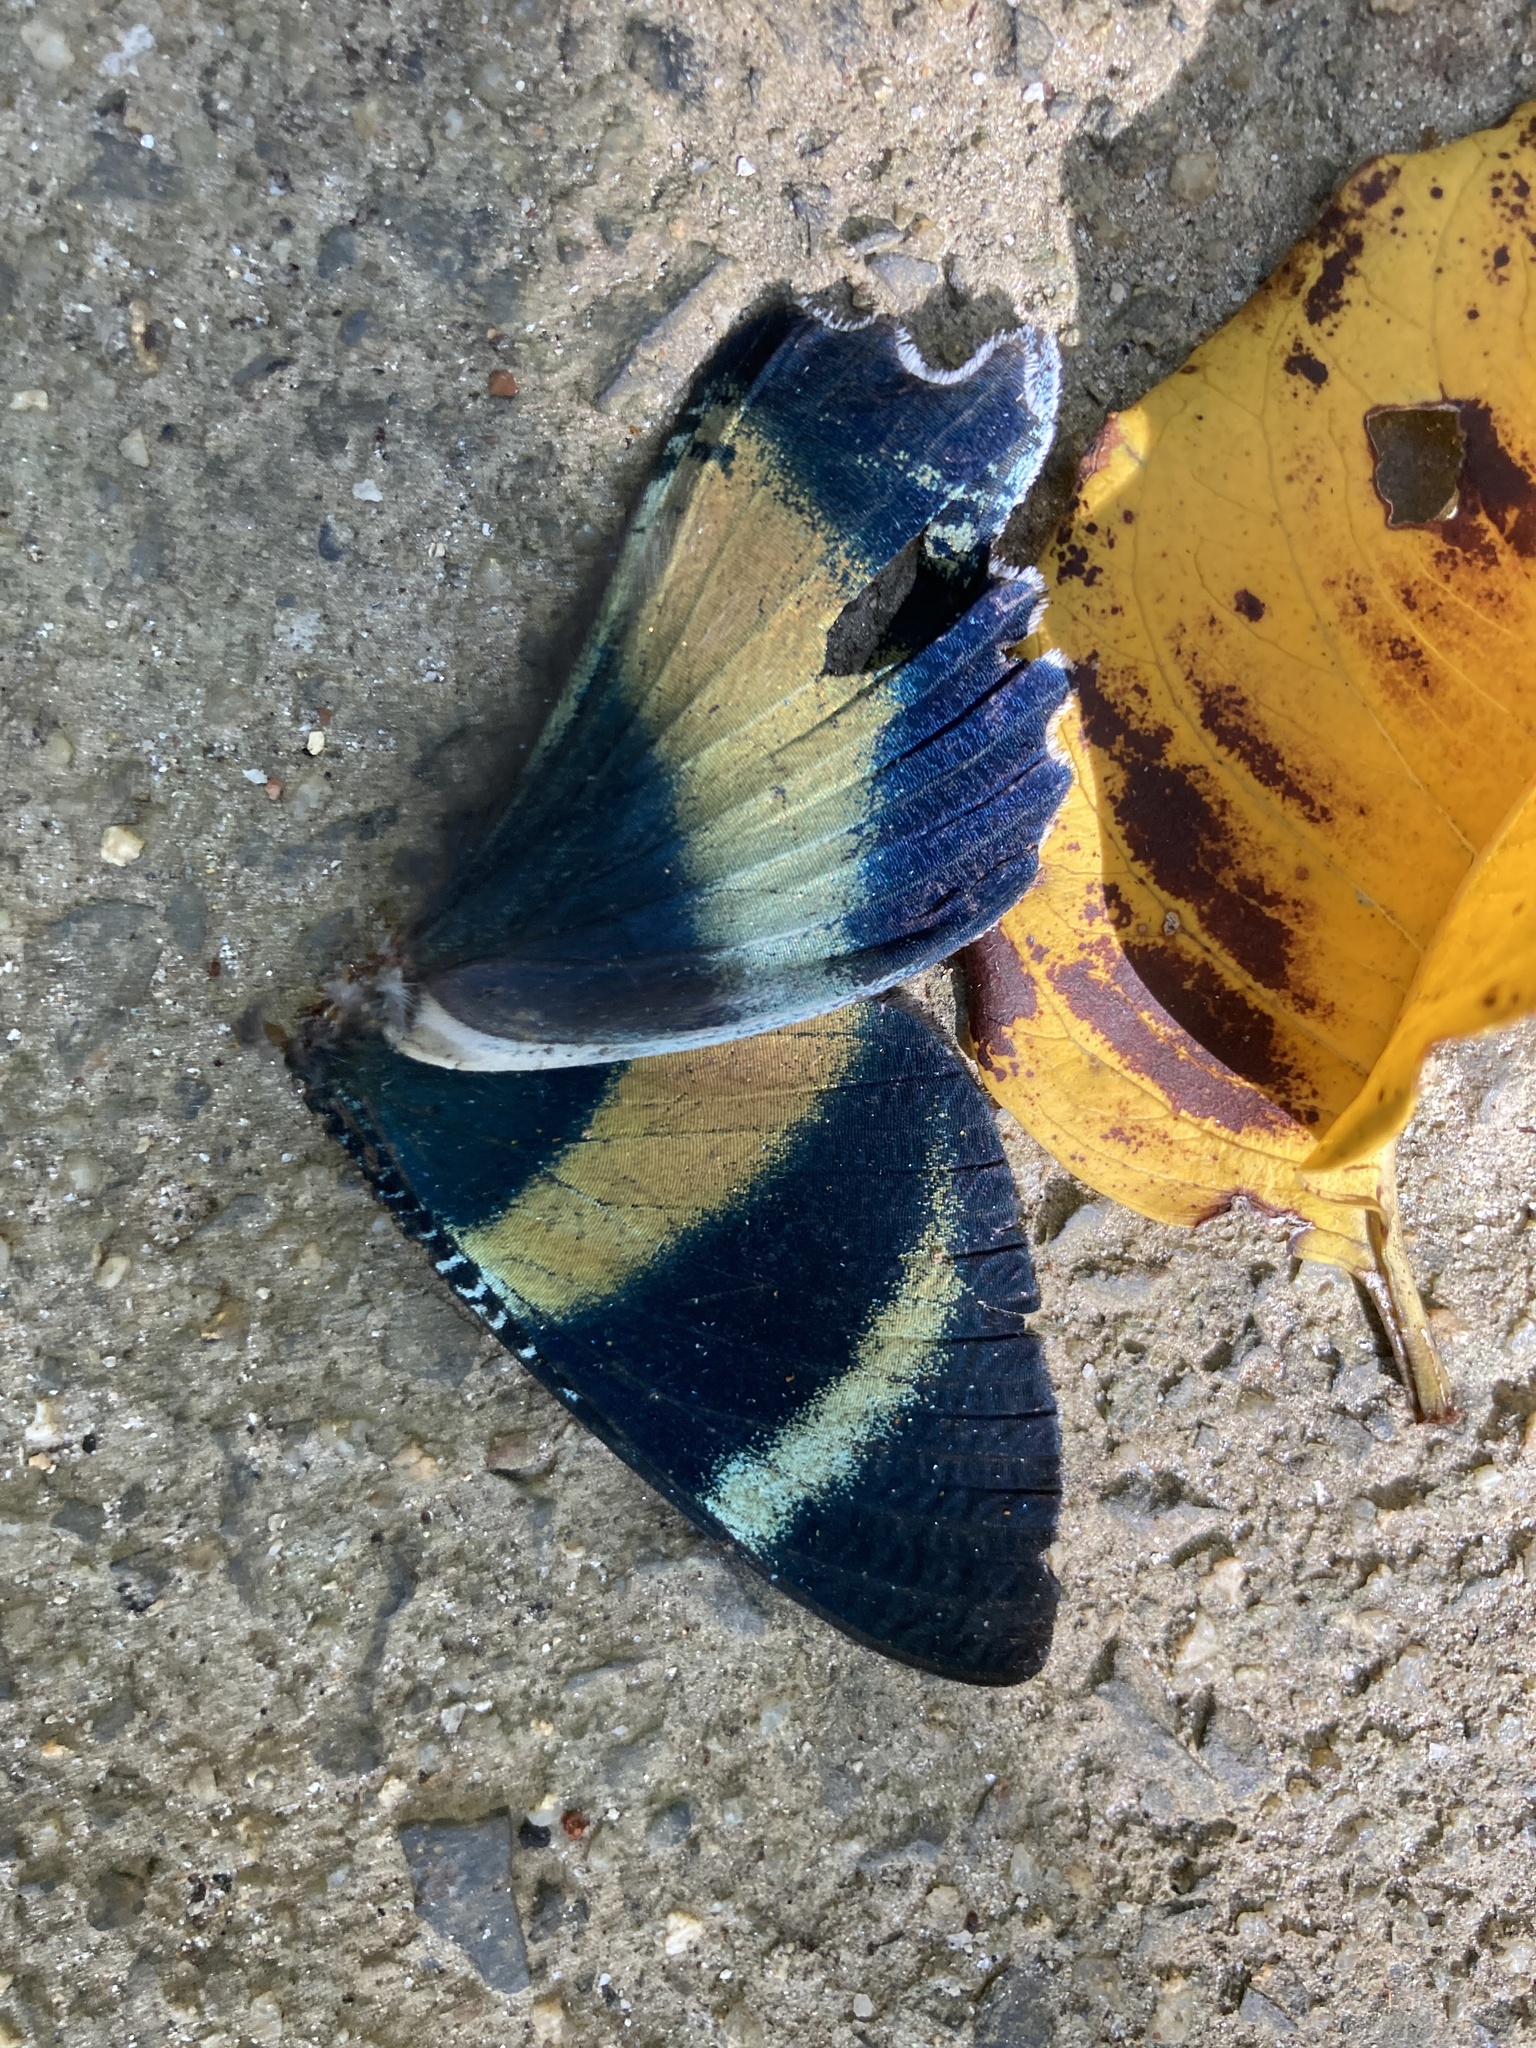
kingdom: Animalia
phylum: Arthropoda
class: Insecta
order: Lepidoptera
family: Uraniidae
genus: Alcides
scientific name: Alcides metaurus
